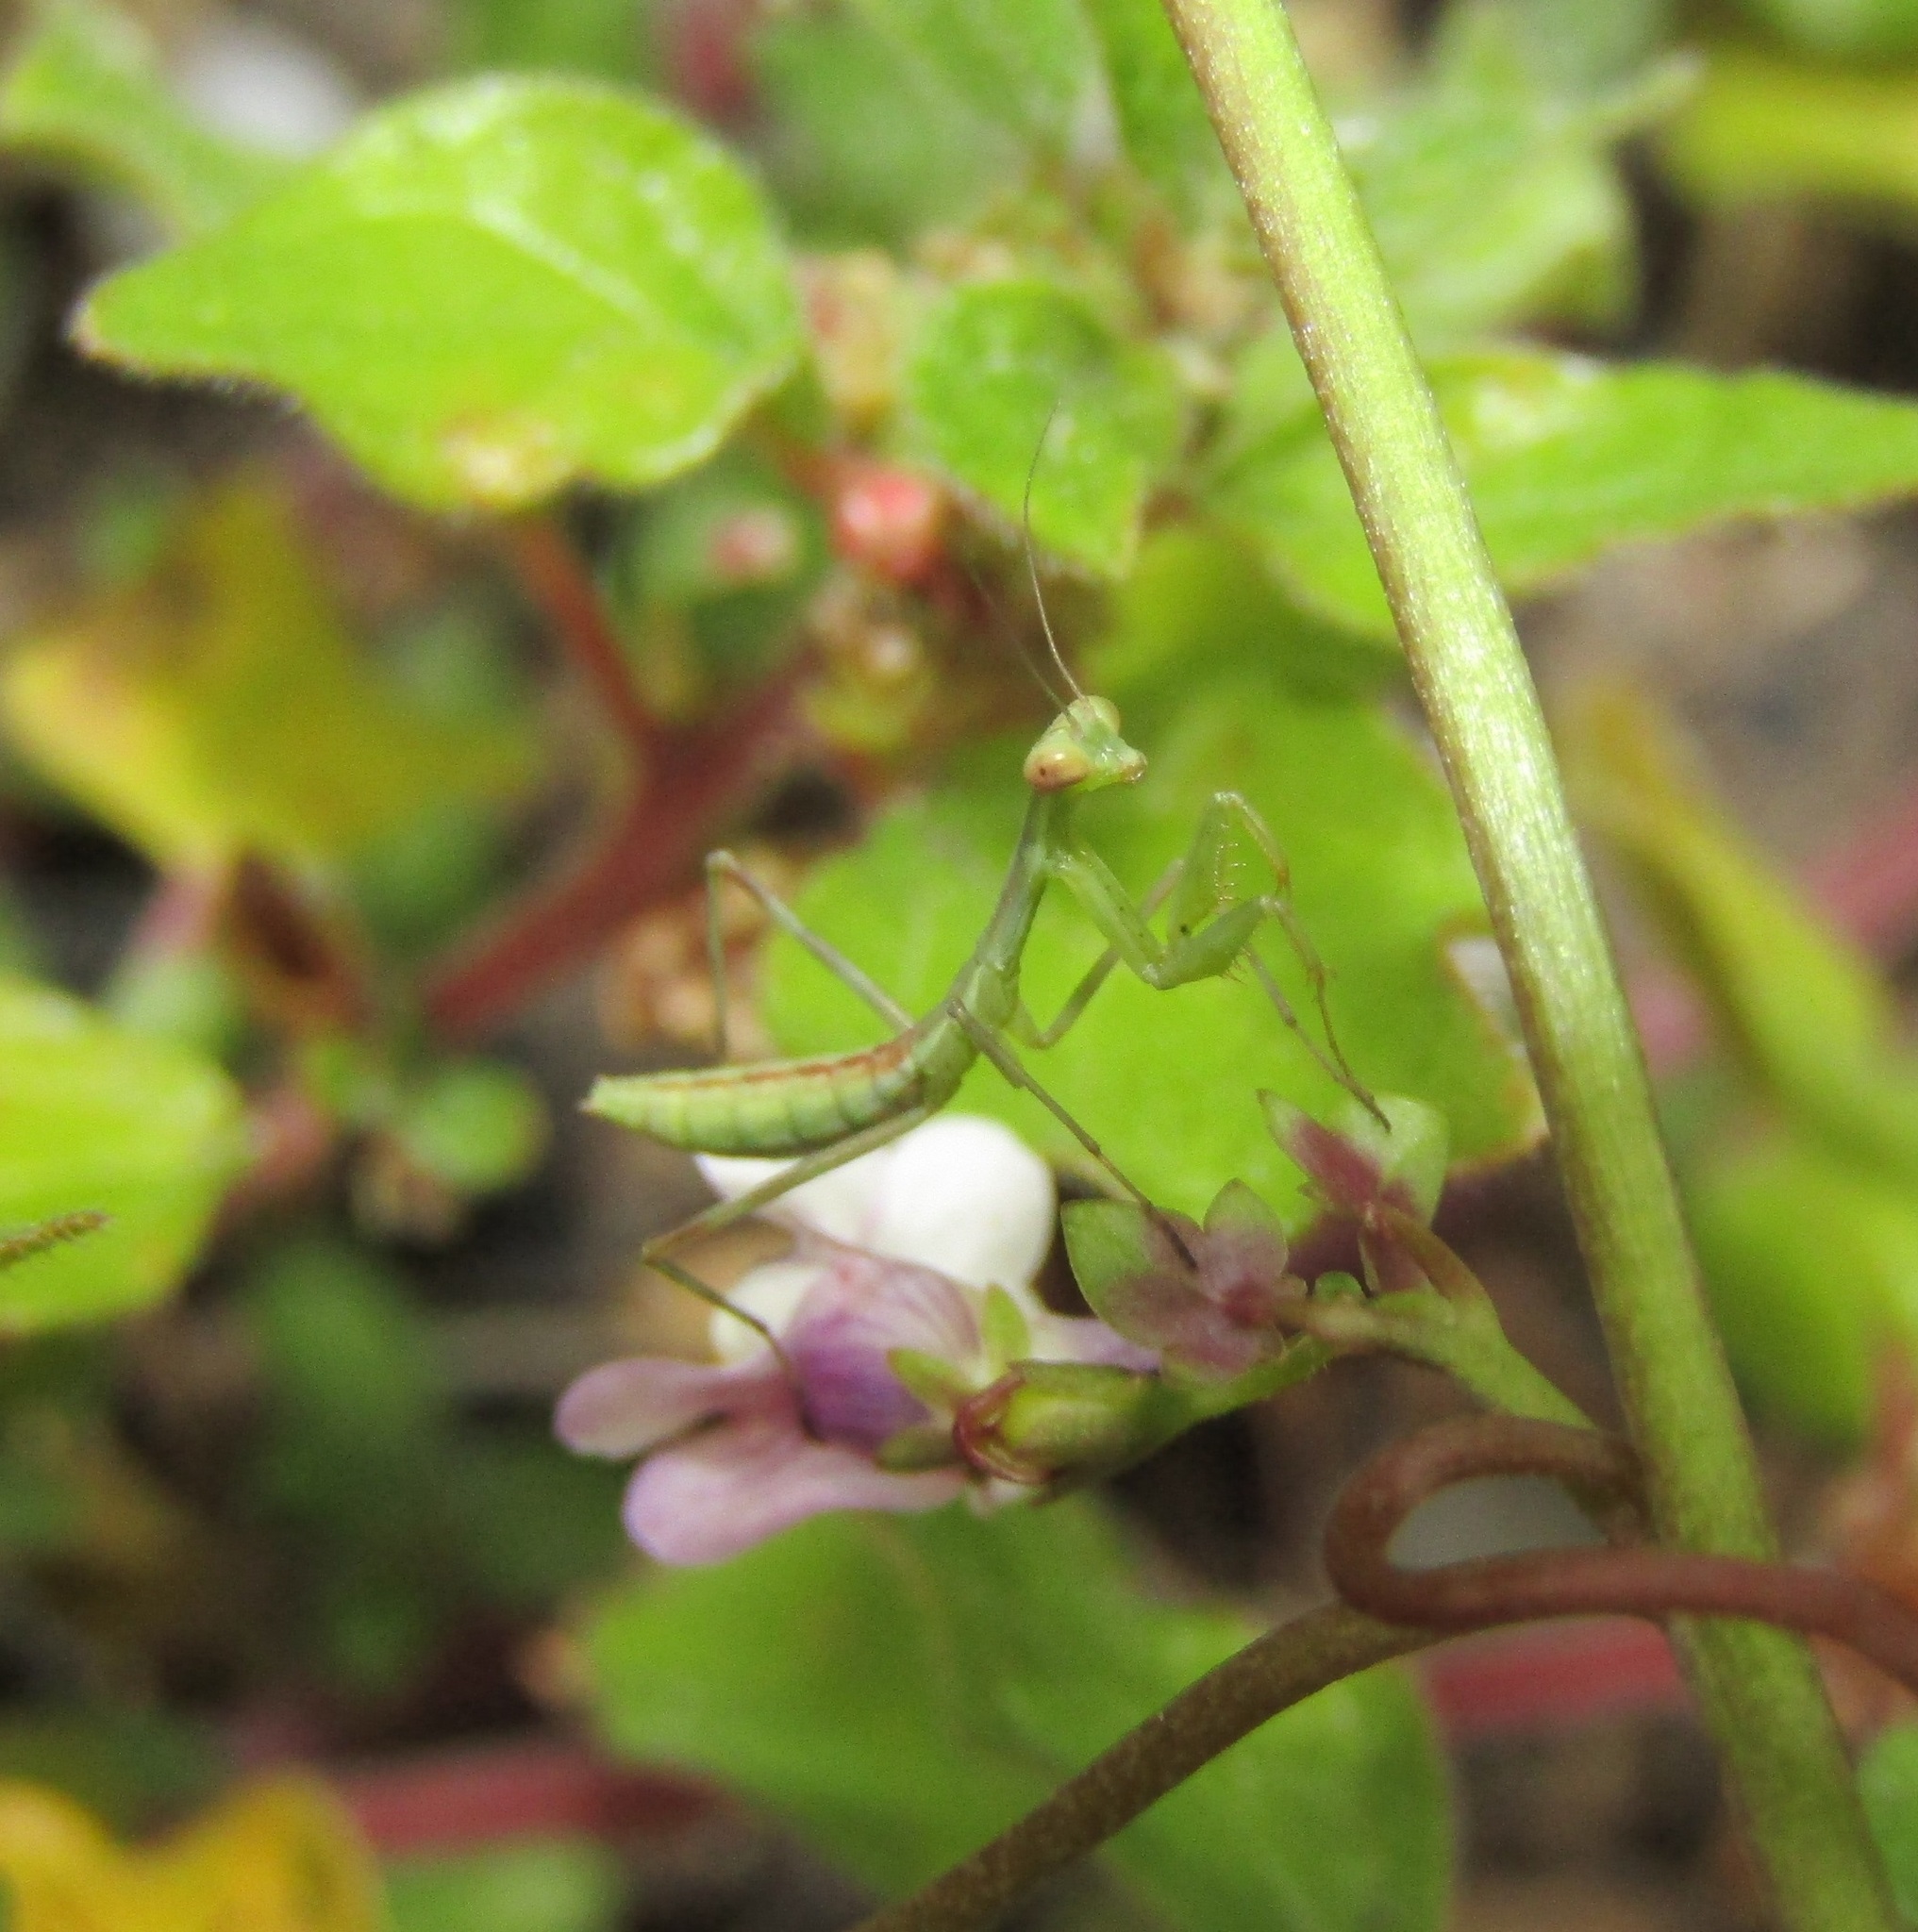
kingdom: Animalia
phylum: Arthropoda
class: Insecta
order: Mantodea
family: Miomantidae
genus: Miomantis
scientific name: Miomantis caffra
